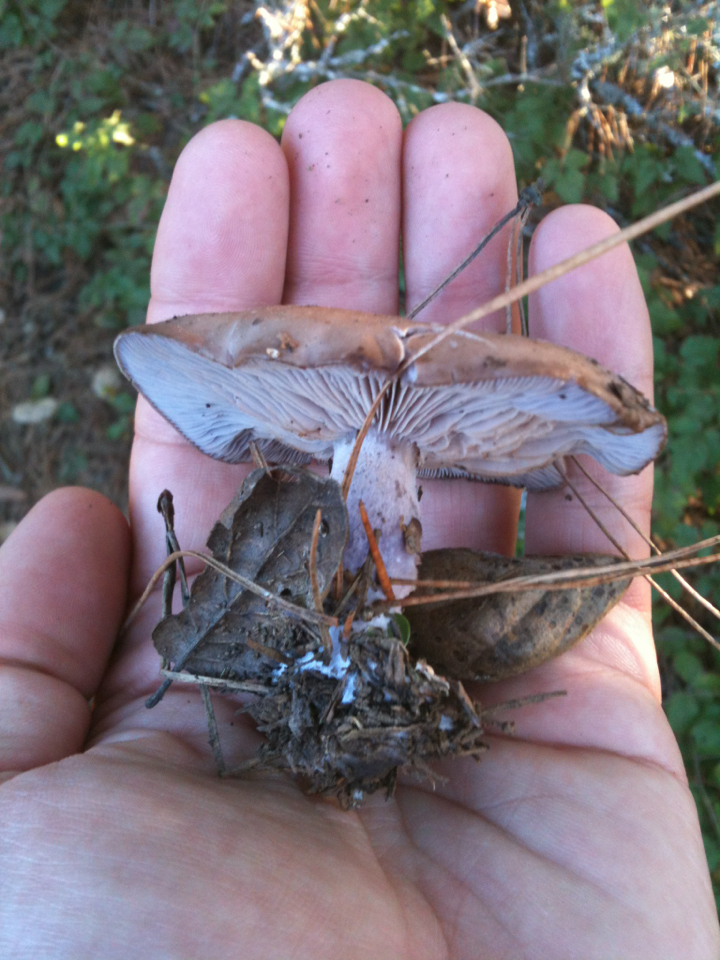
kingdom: Fungi
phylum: Basidiomycota
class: Agaricomycetes
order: Agaricales
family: Tricholomataceae
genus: Collybia
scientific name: Collybia
